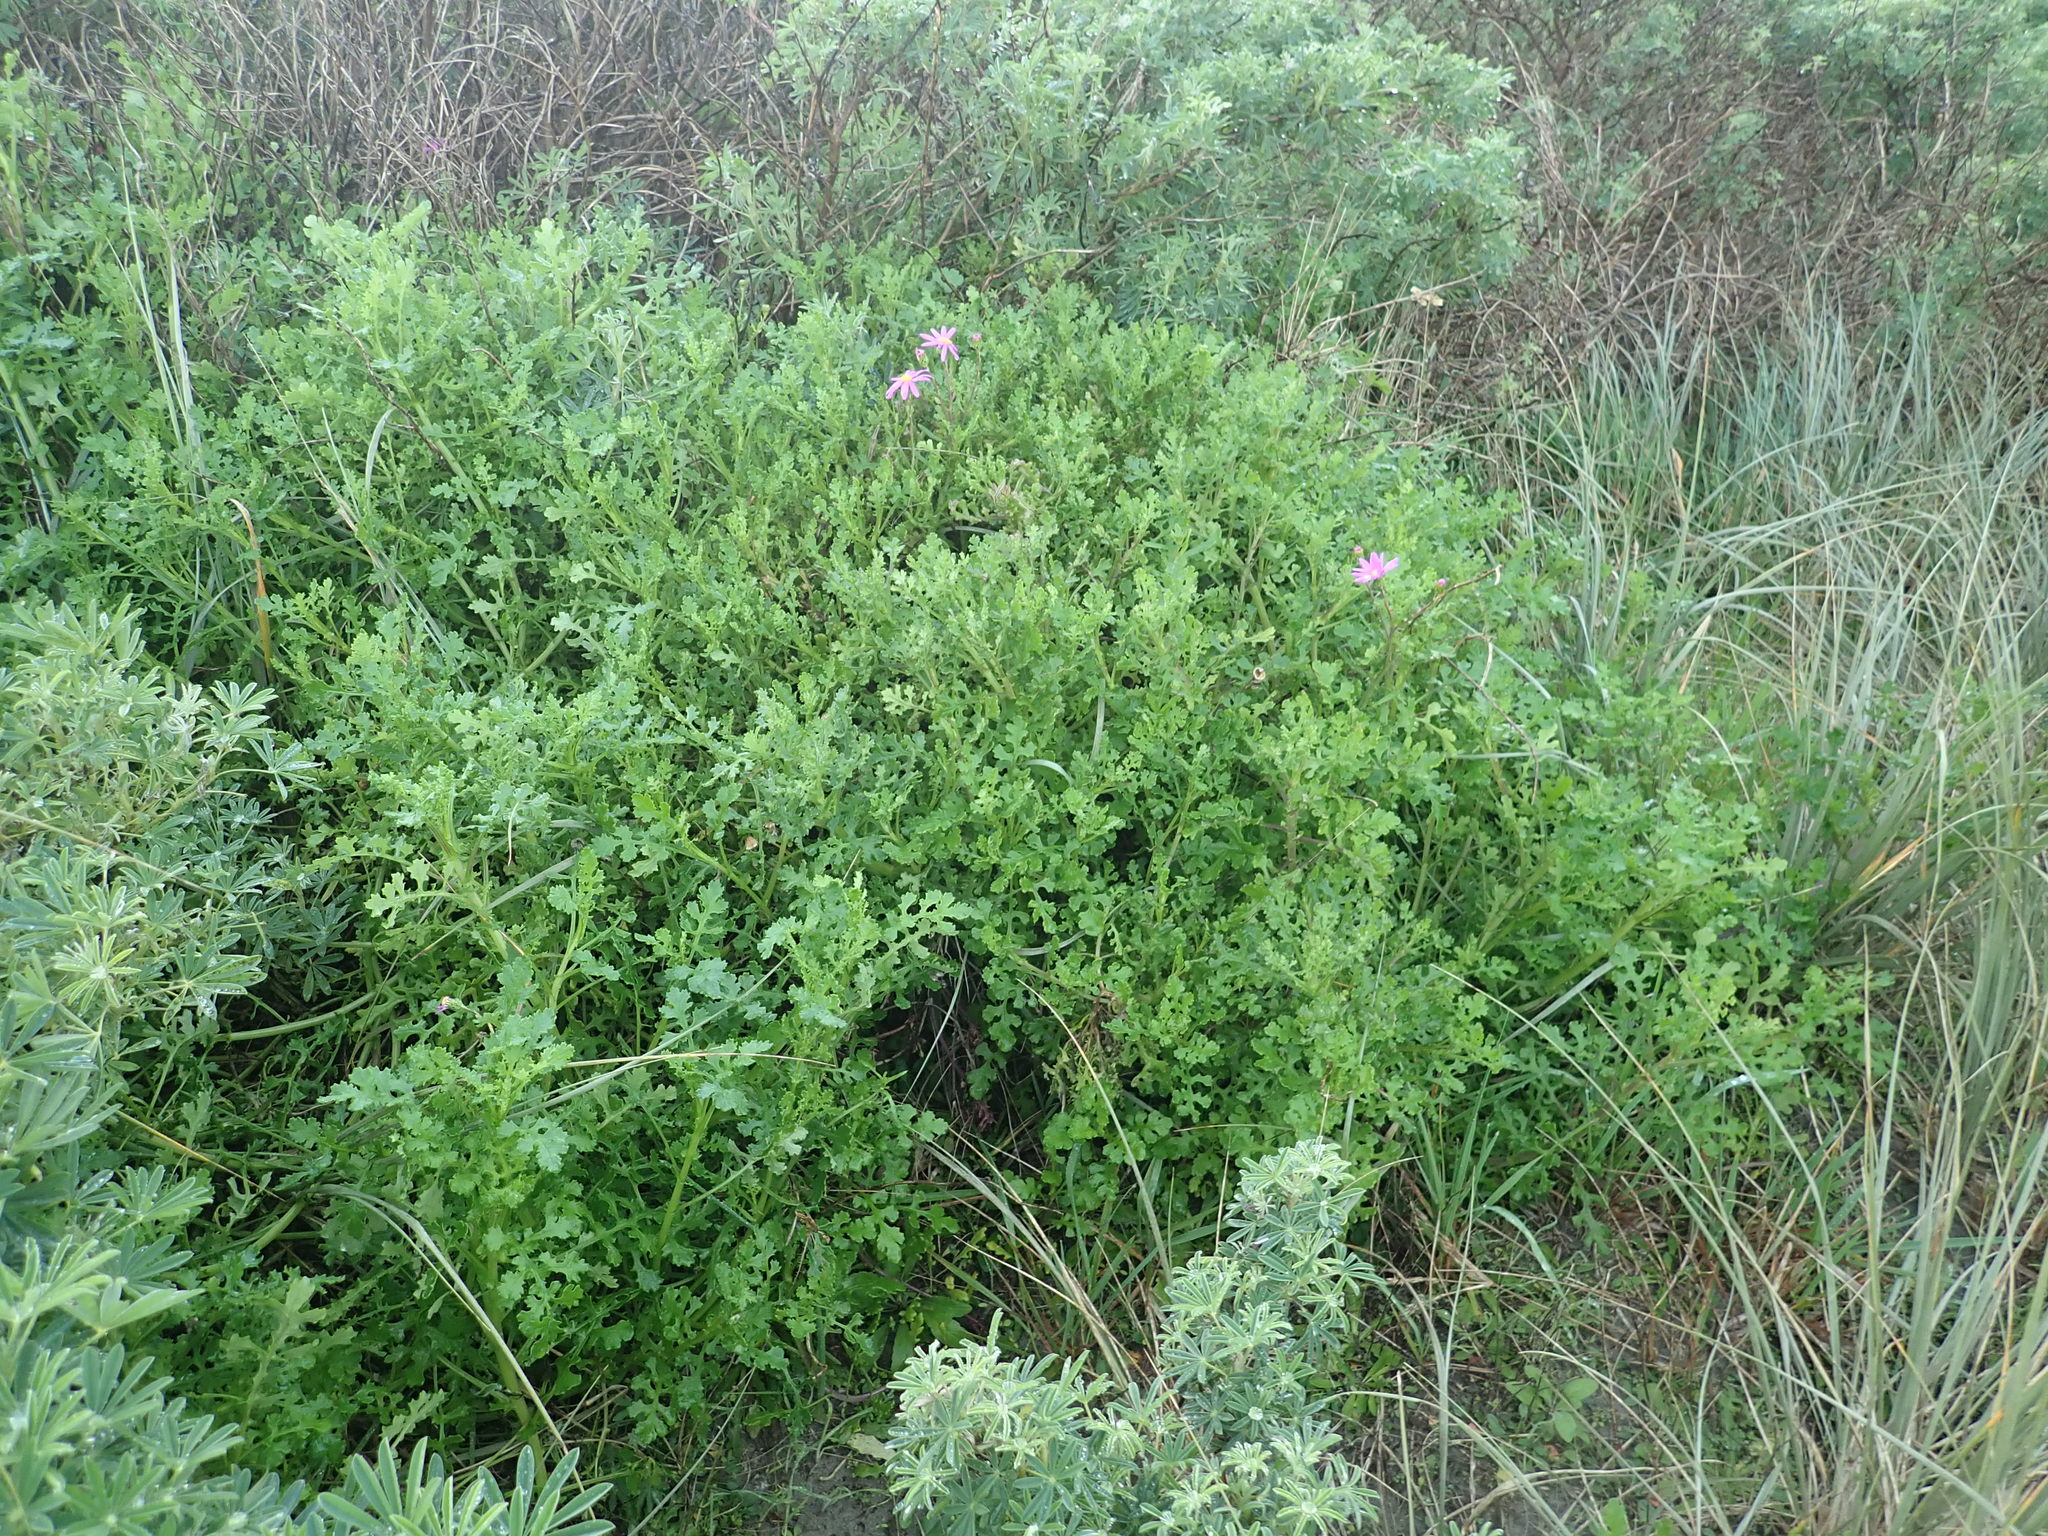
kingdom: Plantae
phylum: Tracheophyta
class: Magnoliopsida
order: Asterales
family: Asteraceae
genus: Senecio
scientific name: Senecio elegans
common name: Purple groundsel
